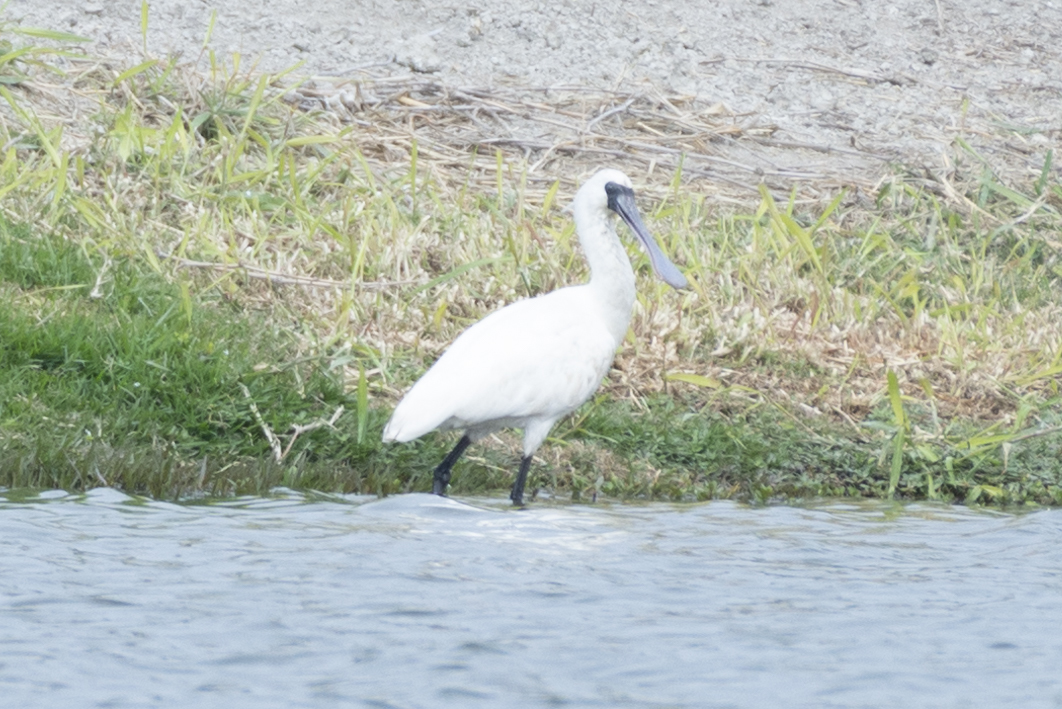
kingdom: Animalia
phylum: Chordata
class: Aves
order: Pelecaniformes
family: Threskiornithidae
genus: Platalea
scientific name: Platalea minor
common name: Black-faced spoonbill
